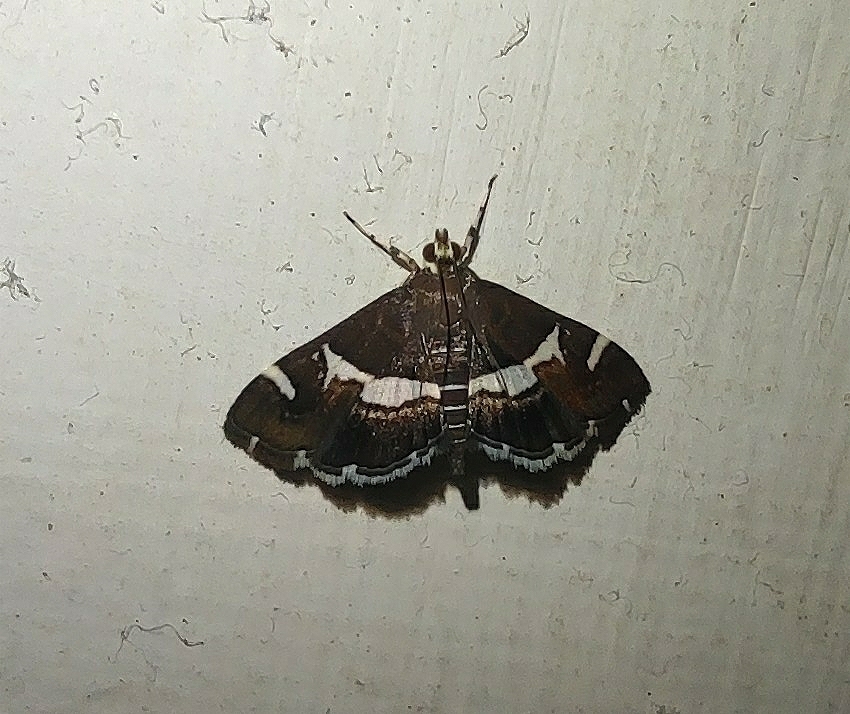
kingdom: Animalia
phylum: Arthropoda
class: Insecta
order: Lepidoptera
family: Crambidae
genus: Spoladea
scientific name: Spoladea recurvalis
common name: Beet webworm moth
